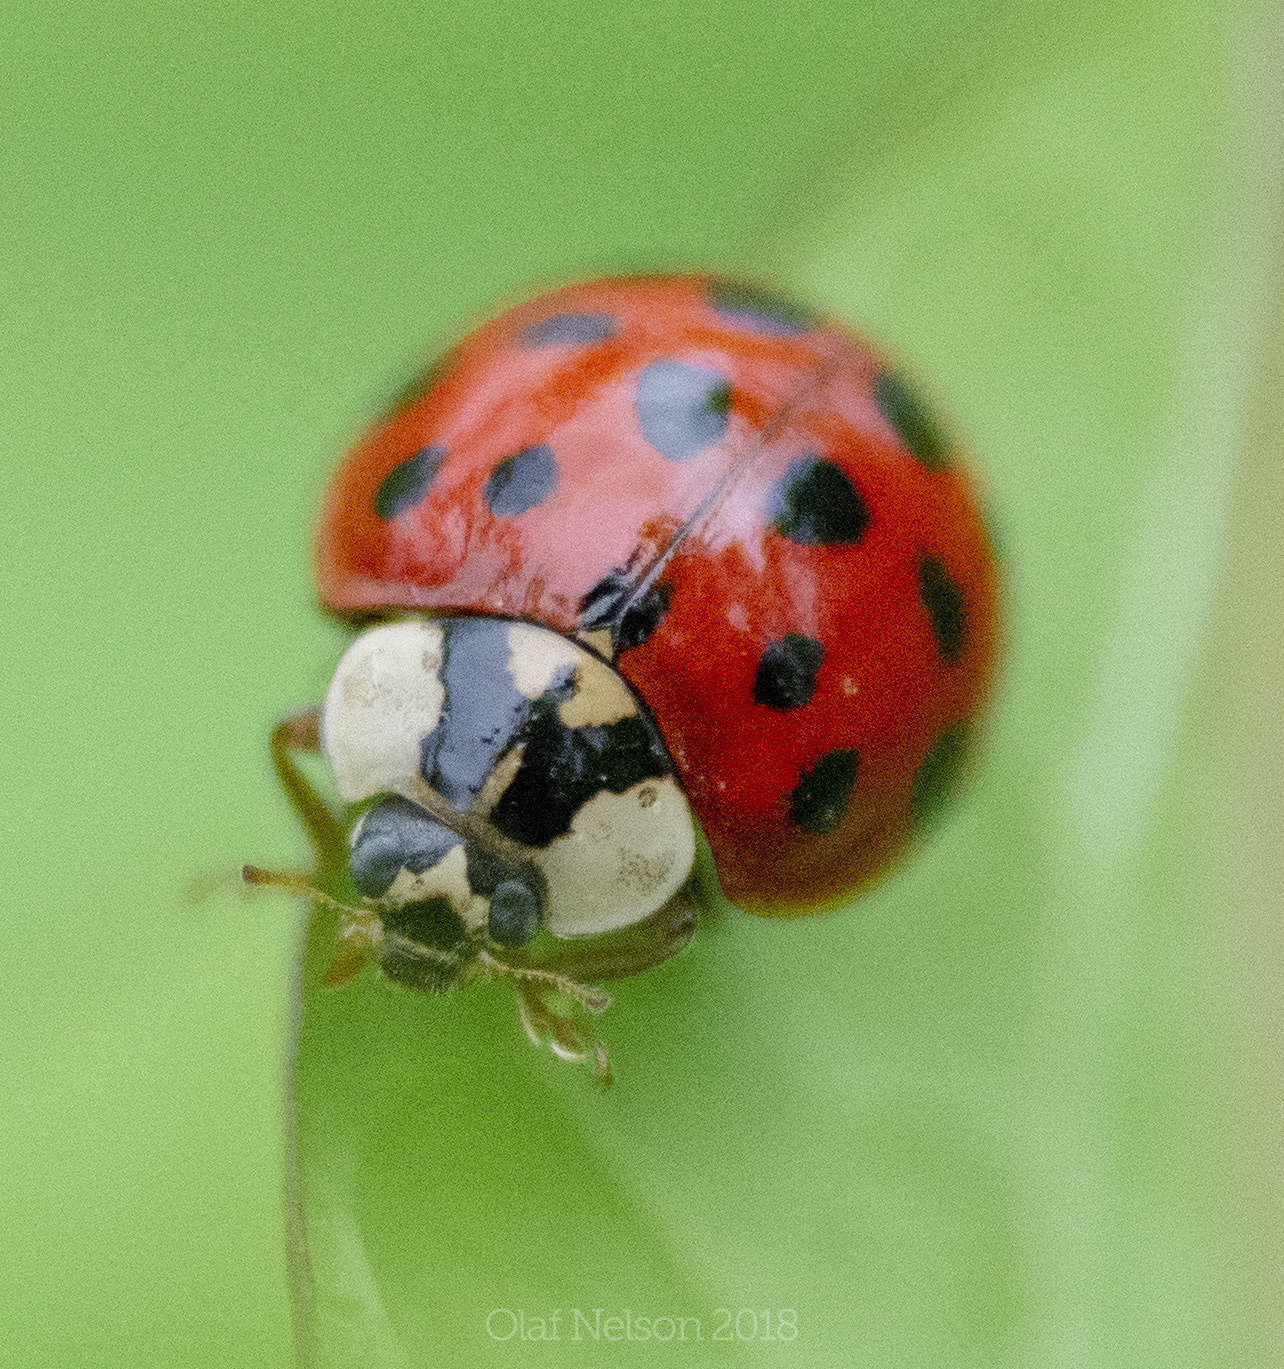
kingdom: Animalia
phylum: Arthropoda
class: Insecta
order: Coleoptera
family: Coccinellidae
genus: Harmonia
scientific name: Harmonia axyridis
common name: Harlequin ladybird
